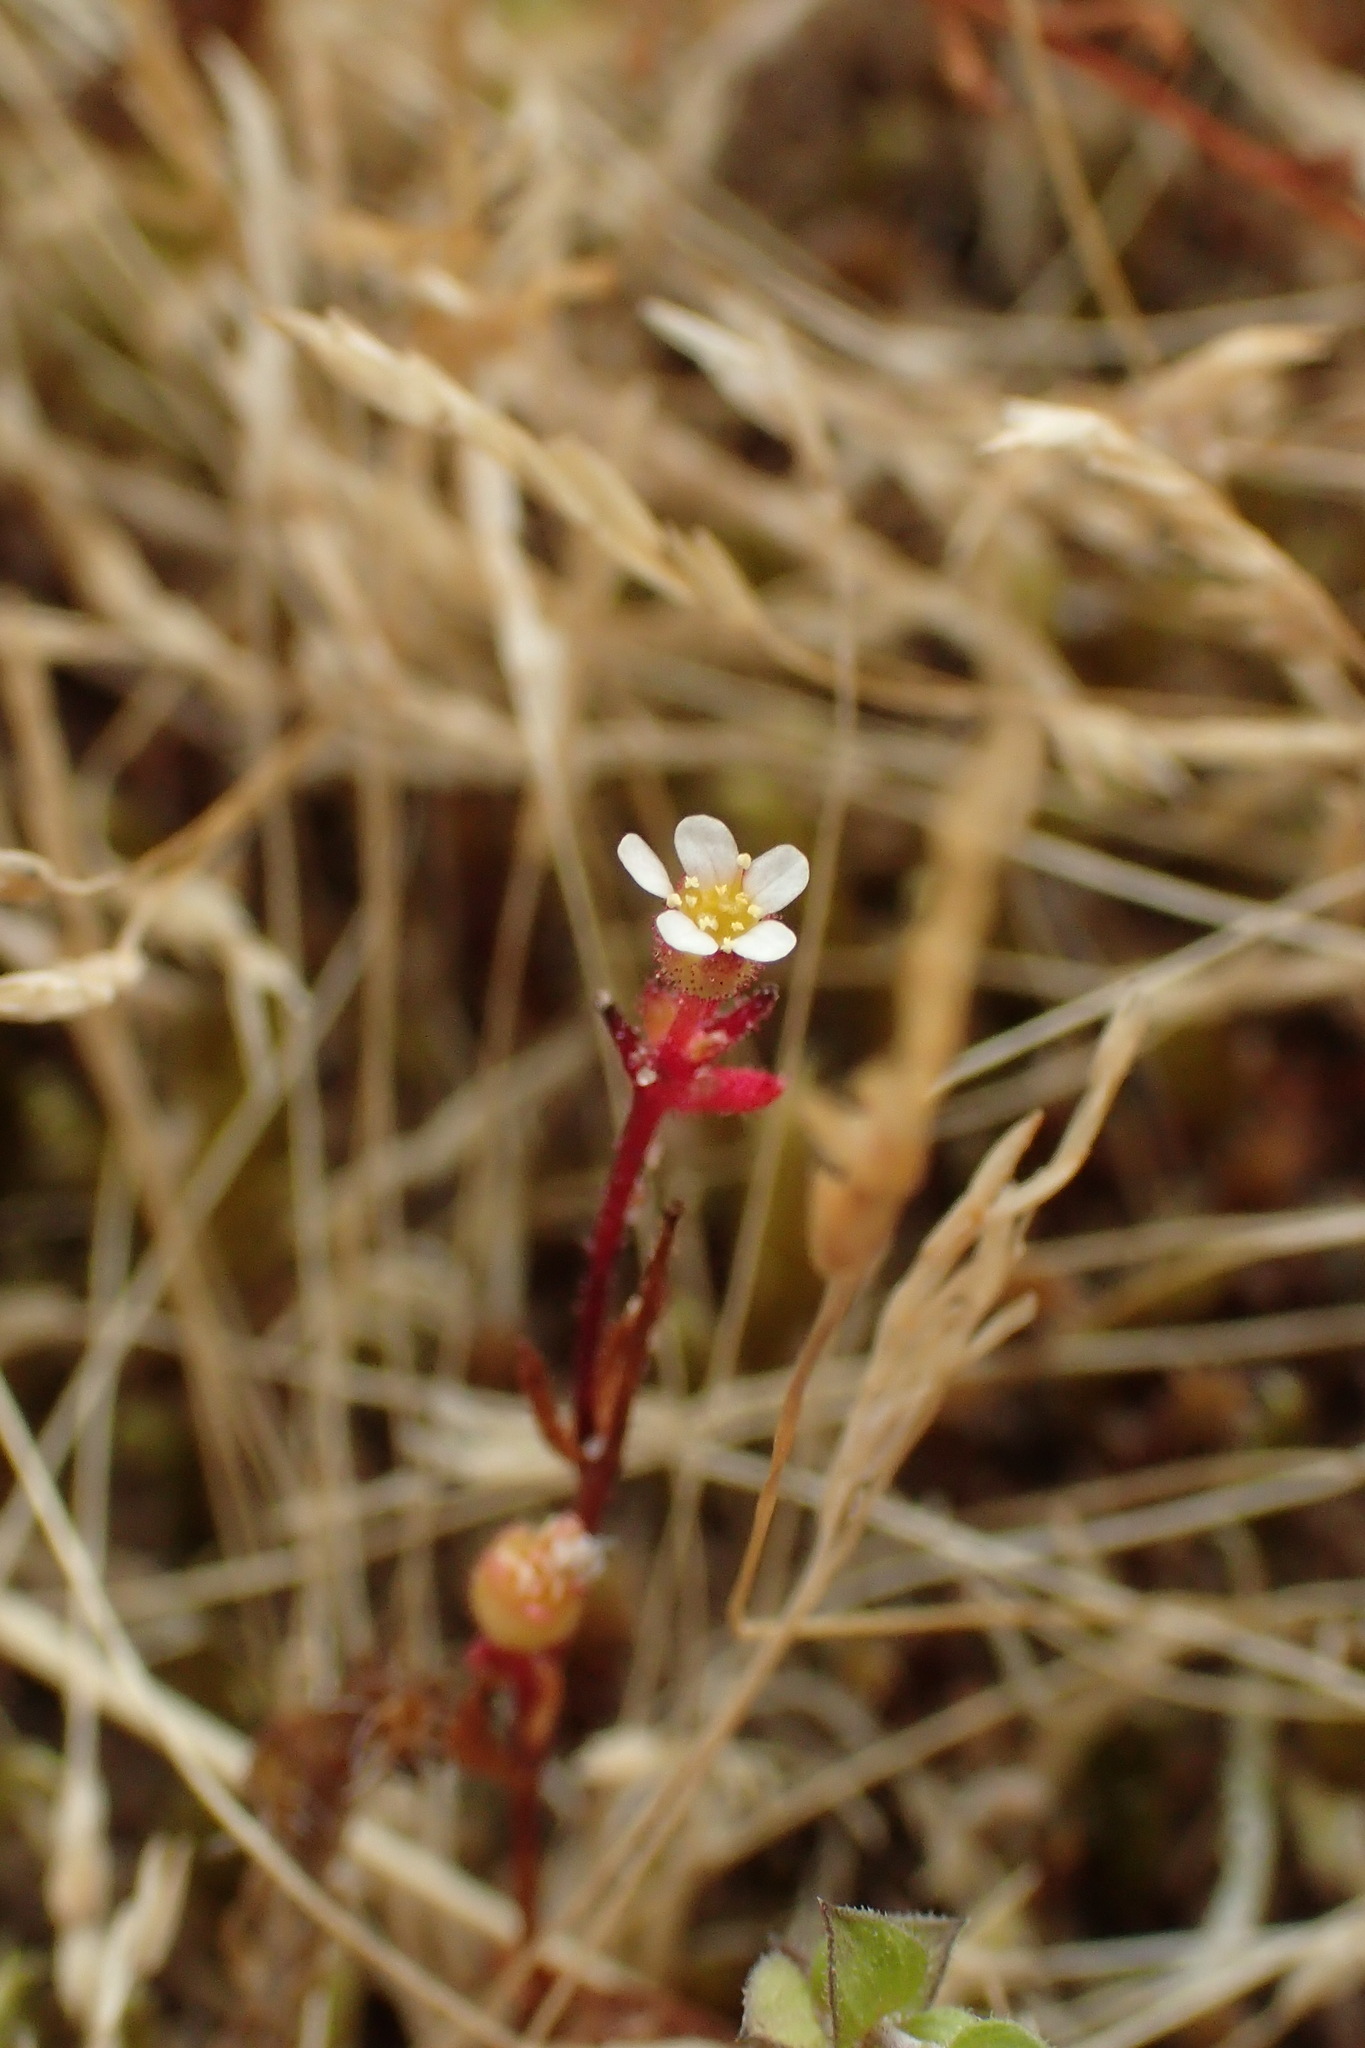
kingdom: Plantae
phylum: Tracheophyta
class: Magnoliopsida
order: Saxifragales
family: Saxifragaceae
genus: Saxifraga
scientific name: Saxifraga tridactylites
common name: Rue-leaved saxifrage
